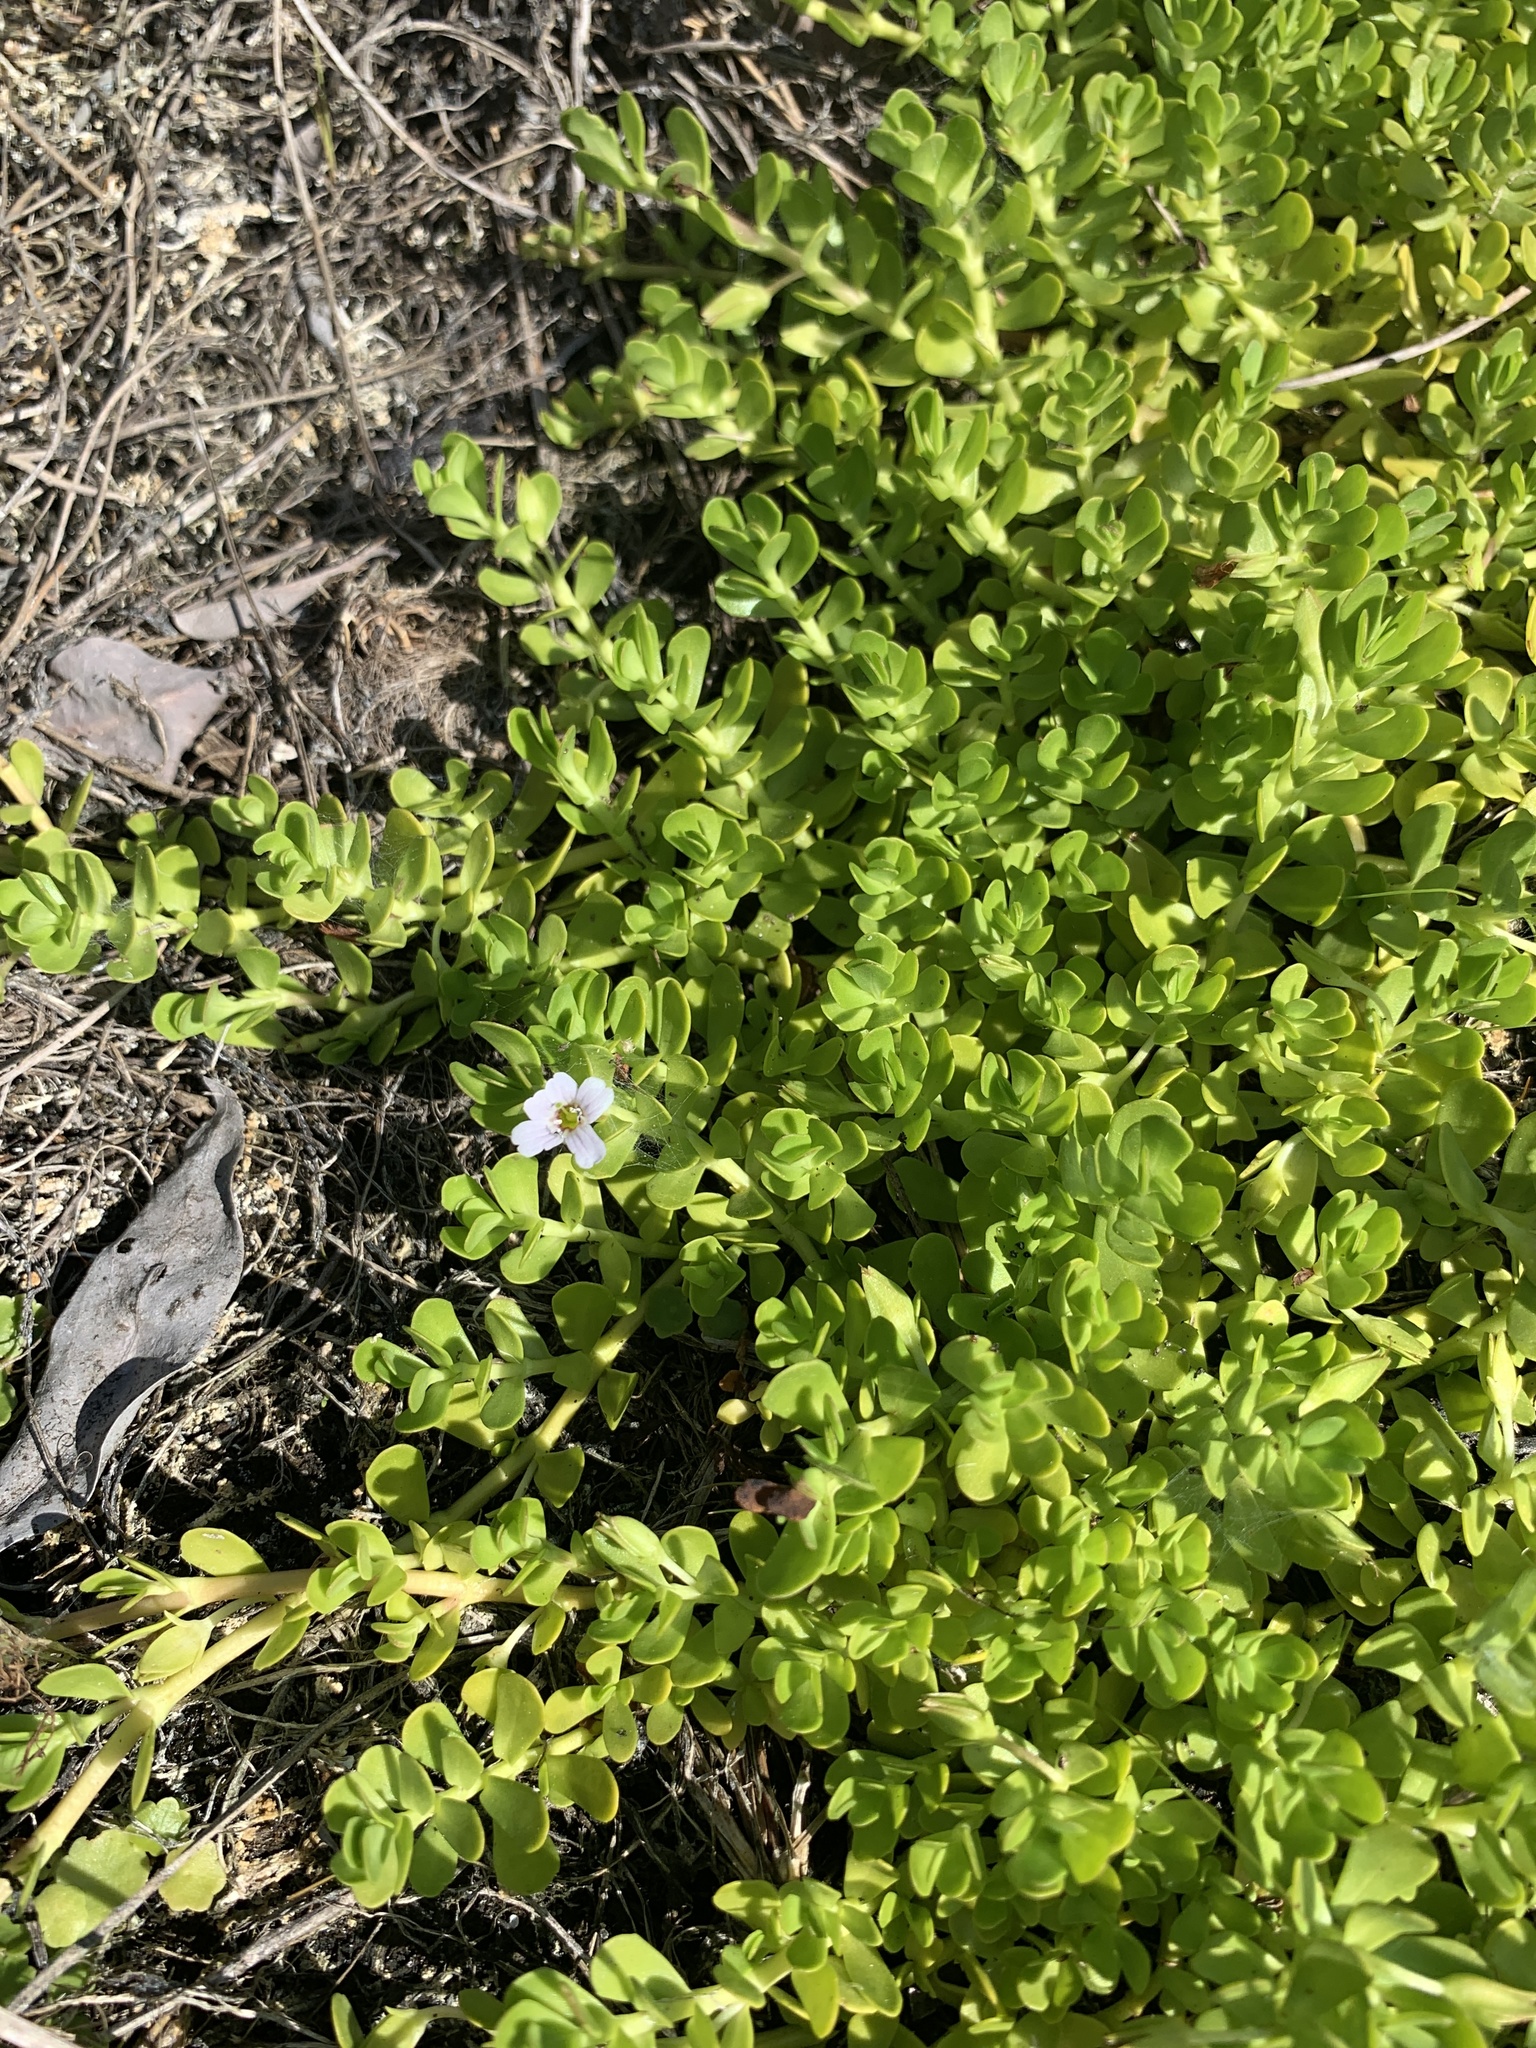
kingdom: Plantae
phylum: Tracheophyta
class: Magnoliopsida
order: Lamiales
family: Plantaginaceae
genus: Bacopa
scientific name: Bacopa monnieri
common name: Indian-pennywort
